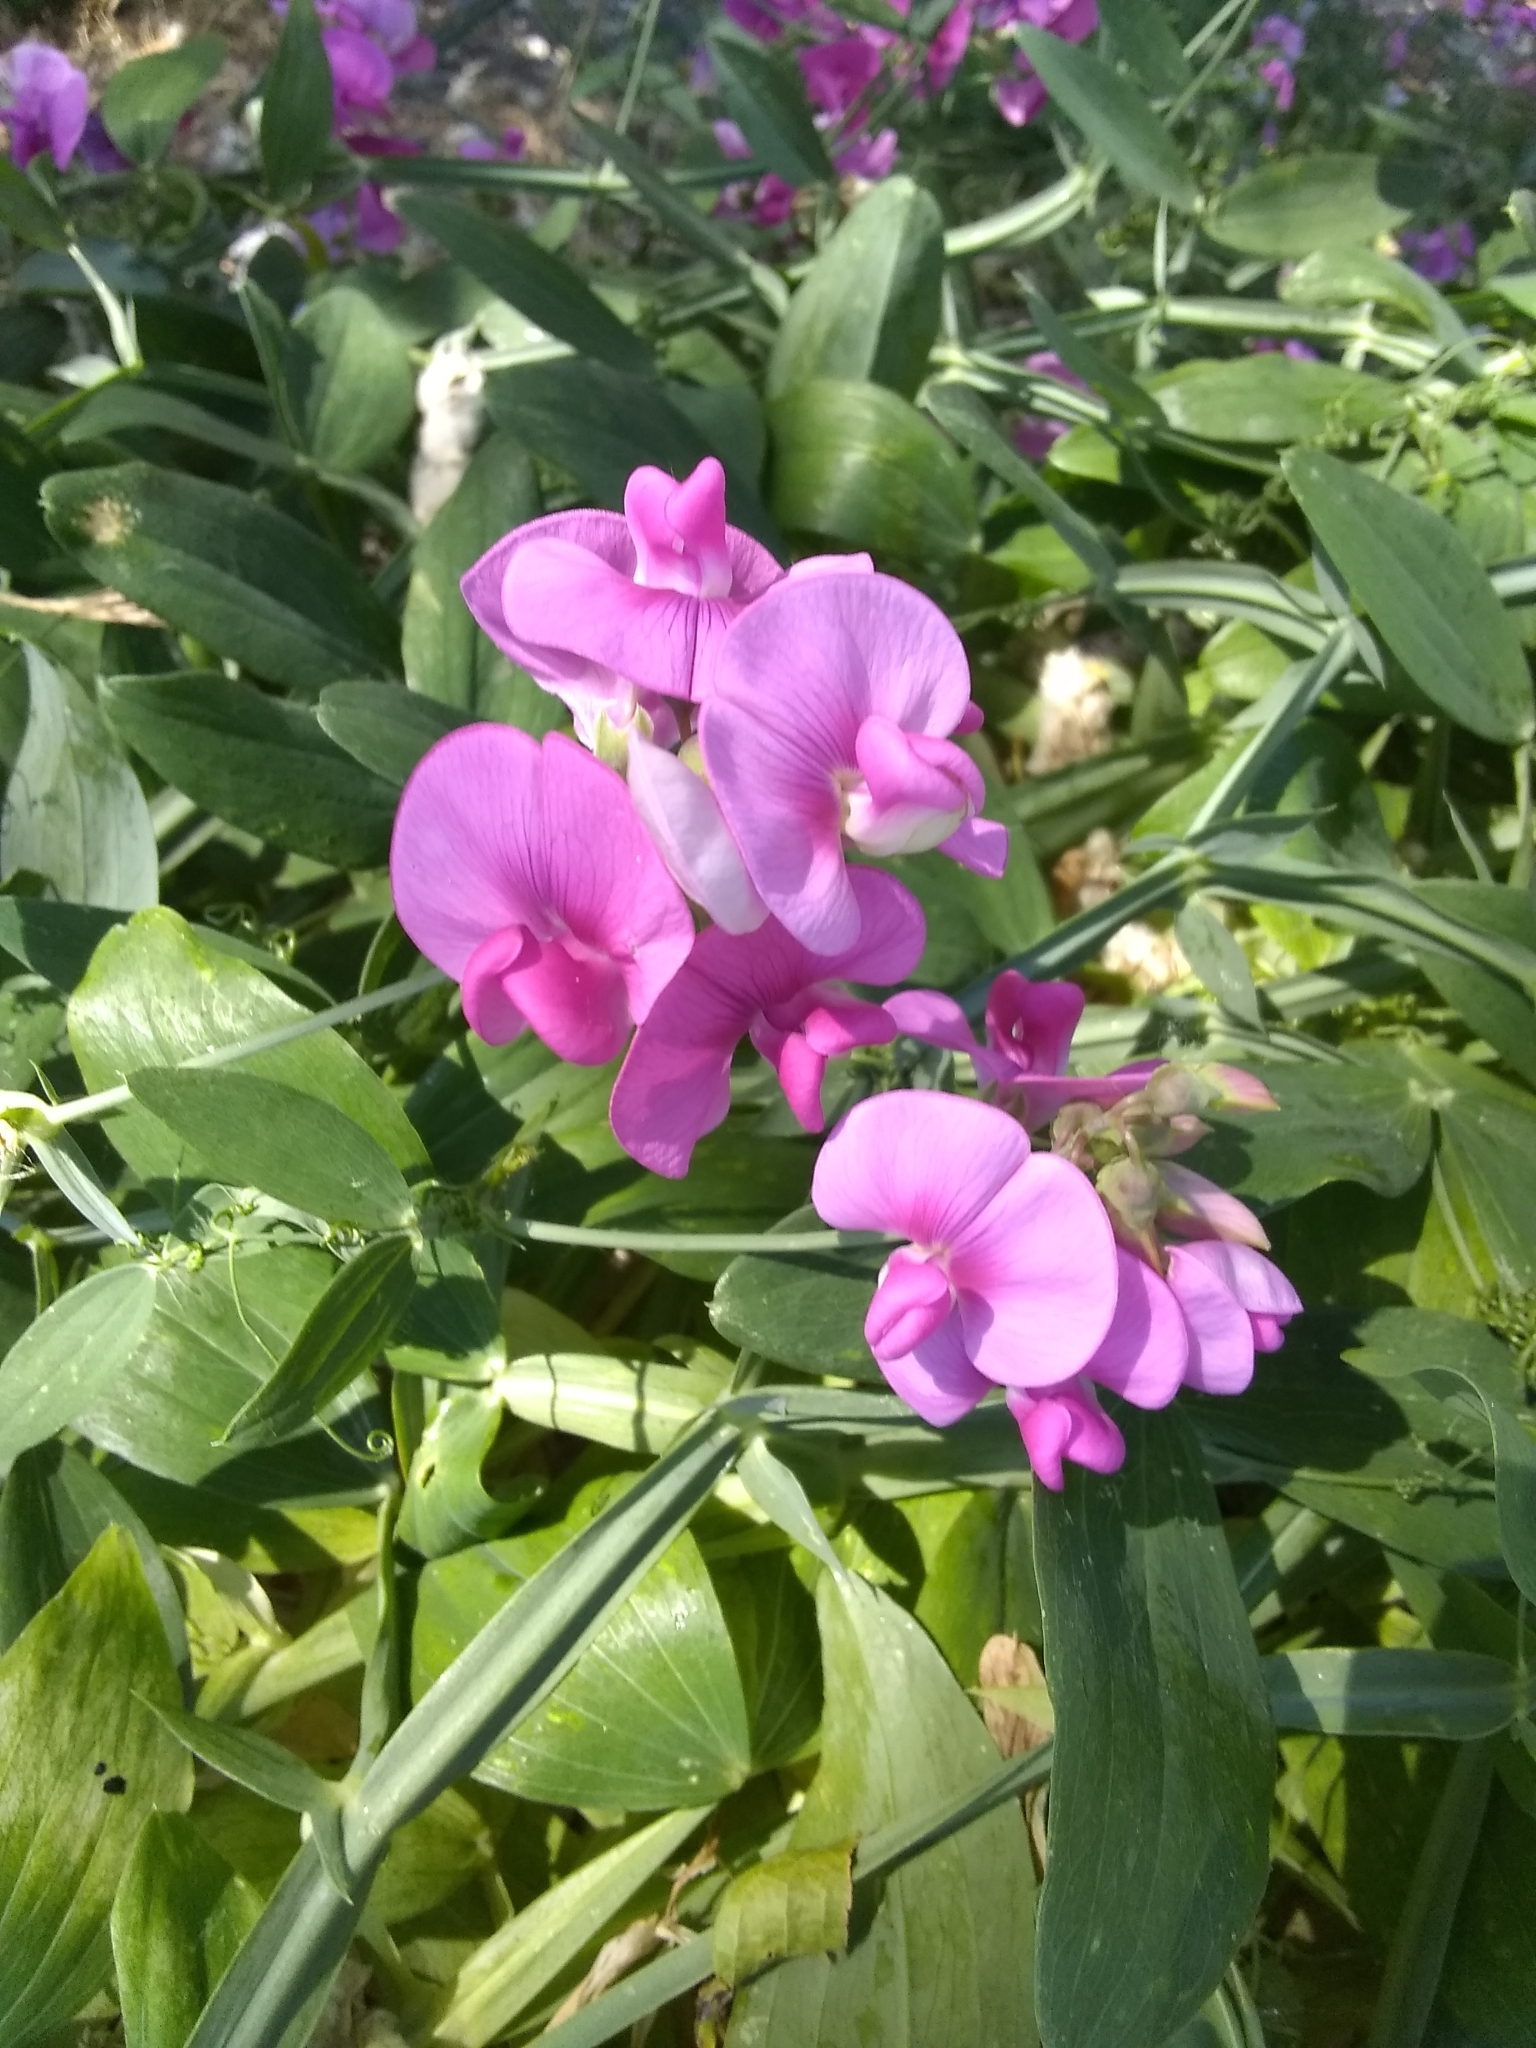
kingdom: Plantae
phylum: Tracheophyta
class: Magnoliopsida
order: Fabales
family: Fabaceae
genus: Lathyrus
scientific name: Lathyrus latifolius
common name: Perennial pea
